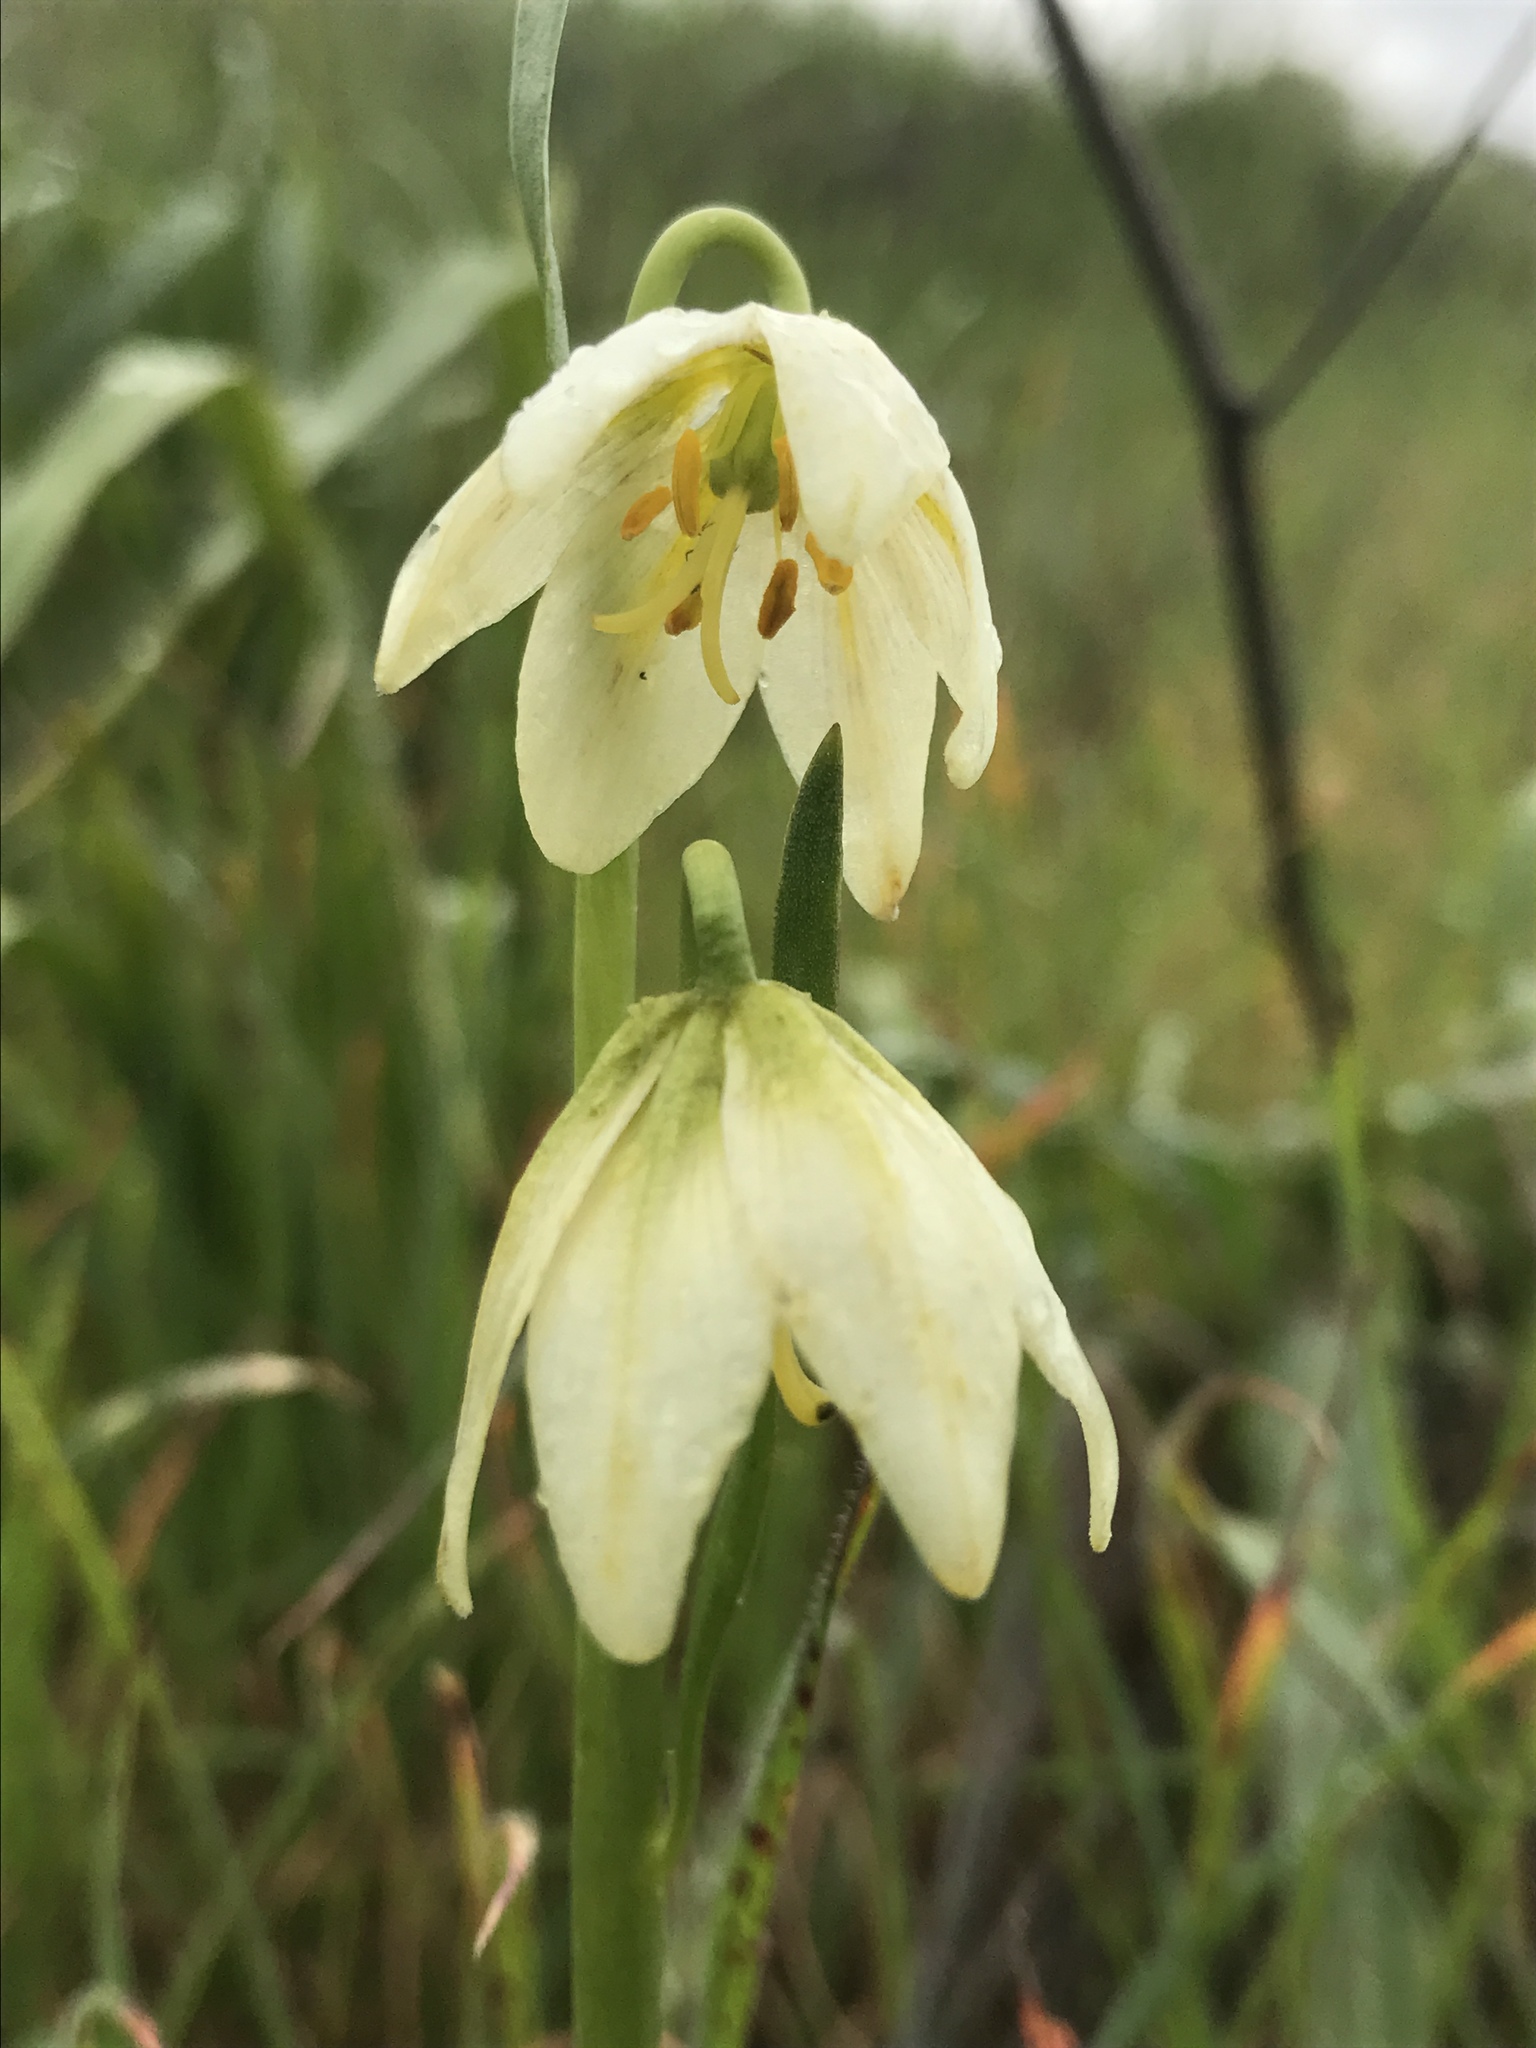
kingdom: Plantae
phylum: Tracheophyta
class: Liliopsida
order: Liliales
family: Liliaceae
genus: Fritillaria
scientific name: Fritillaria liliacea
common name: Fragrant fritillary
